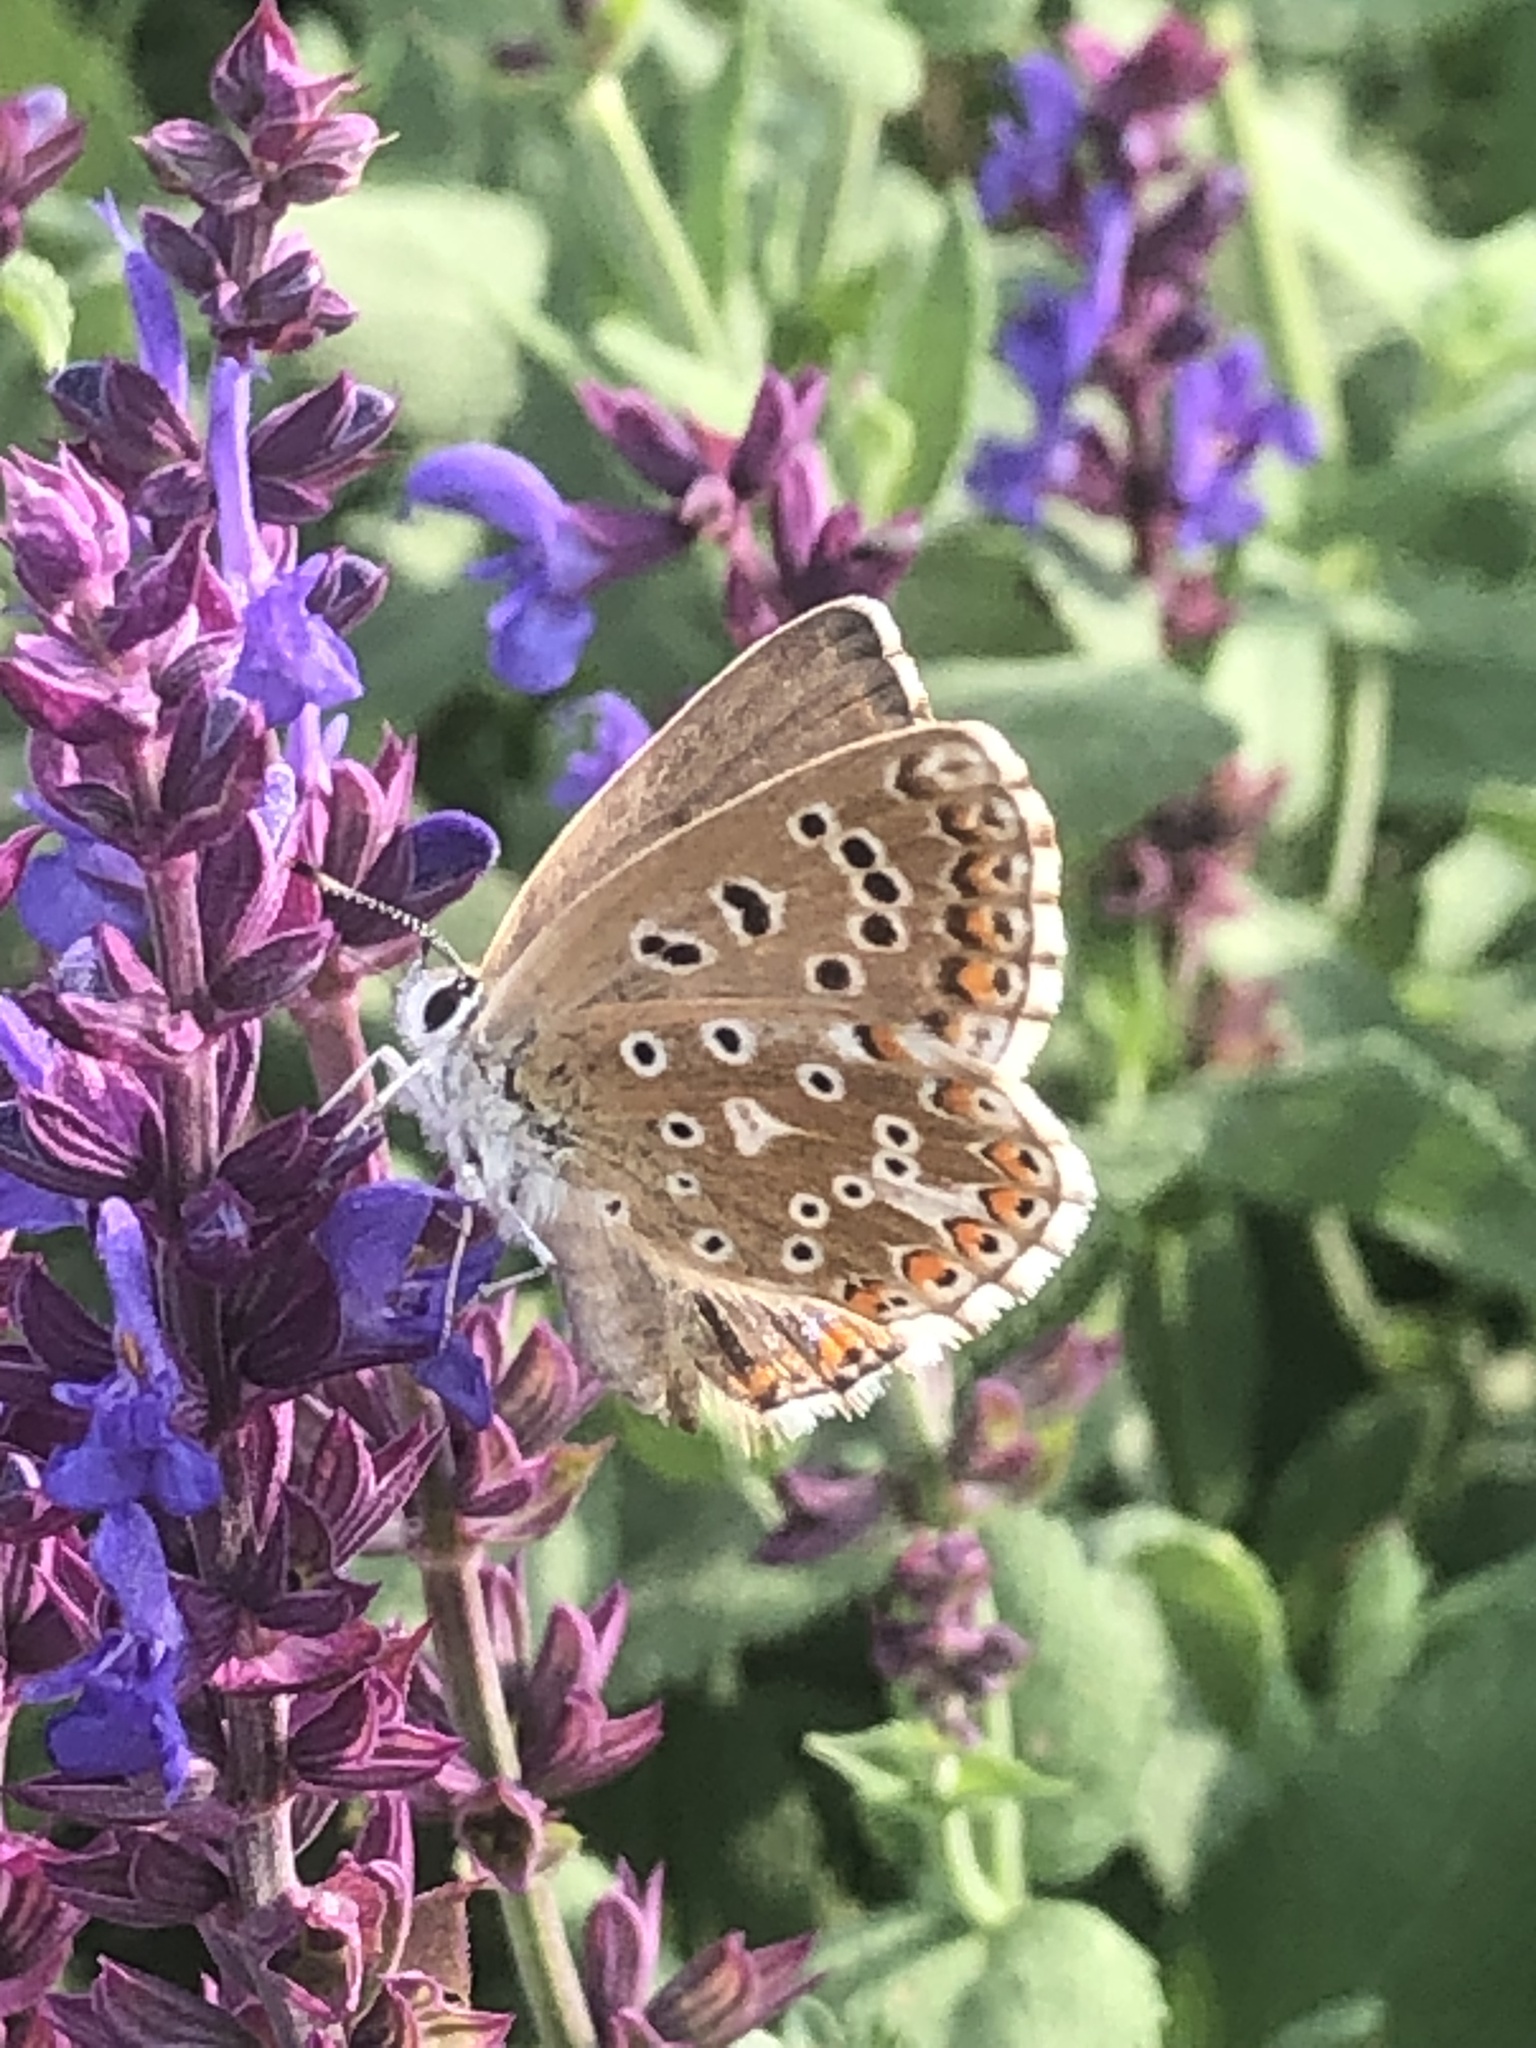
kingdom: Animalia
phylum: Arthropoda
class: Insecta
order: Lepidoptera
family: Lycaenidae
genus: Lysandra
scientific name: Lysandra bellargus
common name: Adonis blue
